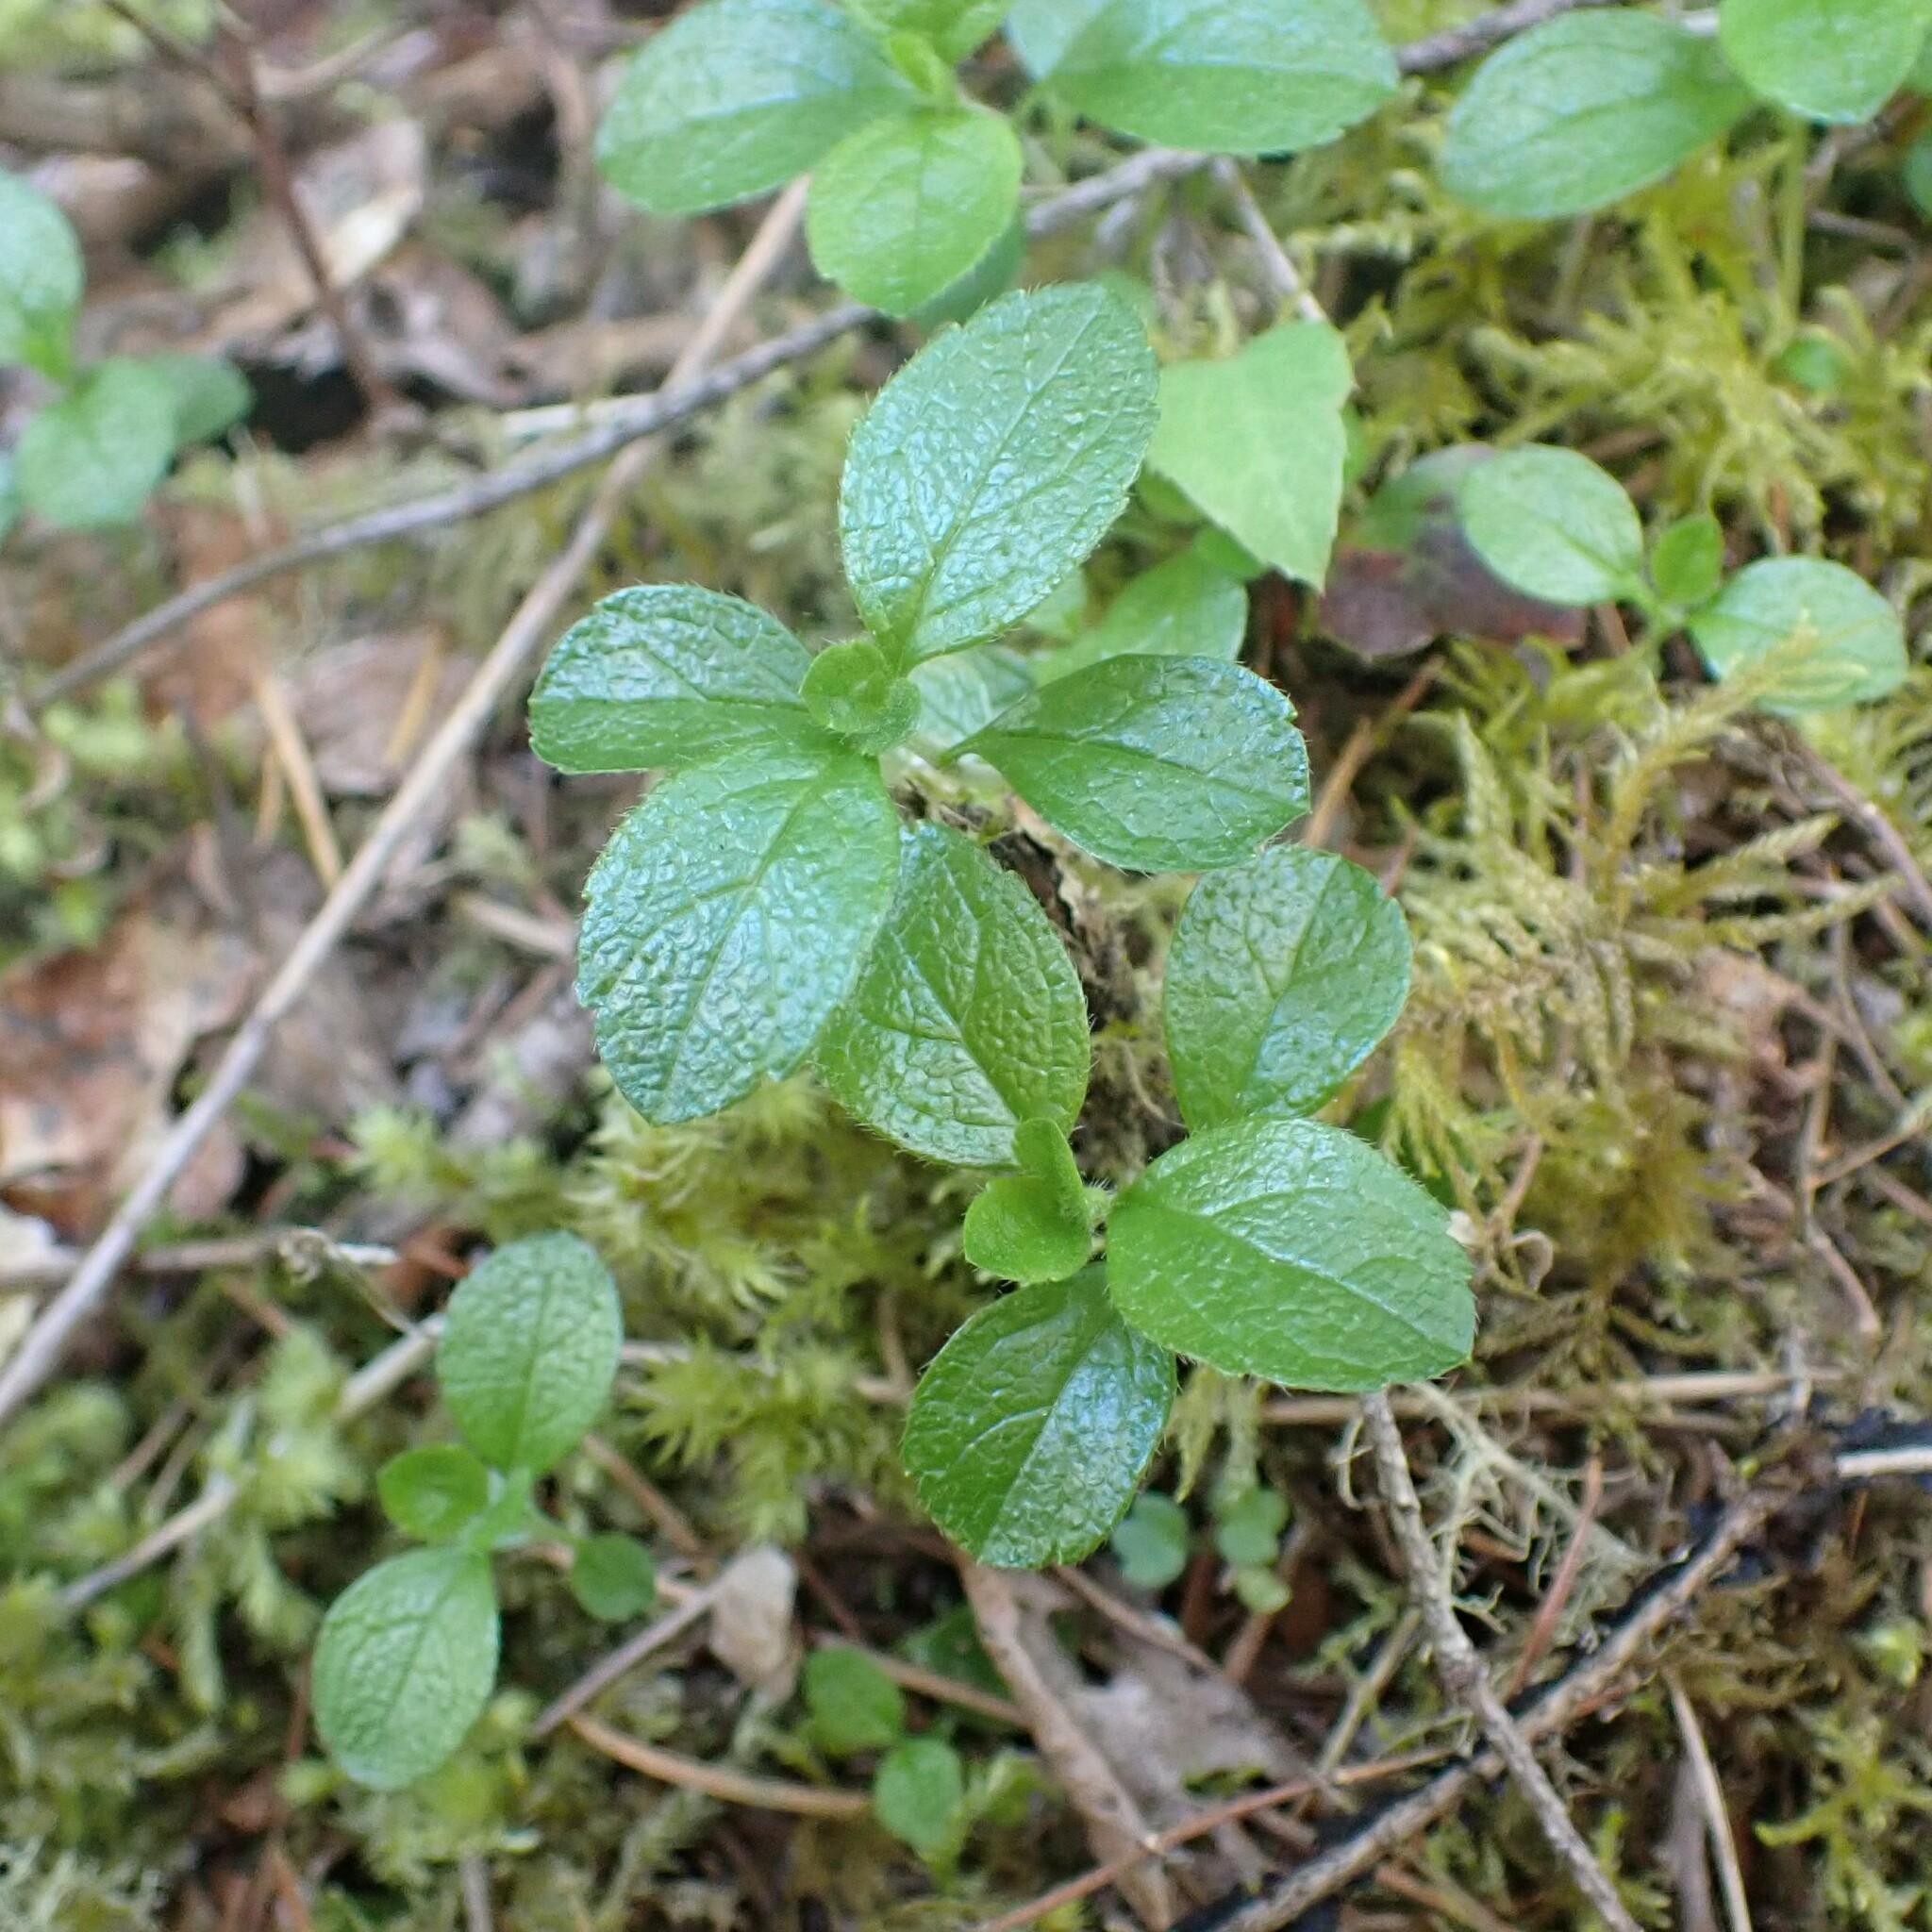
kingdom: Plantae
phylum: Tracheophyta
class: Magnoliopsida
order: Dipsacales
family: Caprifoliaceae
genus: Linnaea
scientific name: Linnaea borealis
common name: Twinflower
